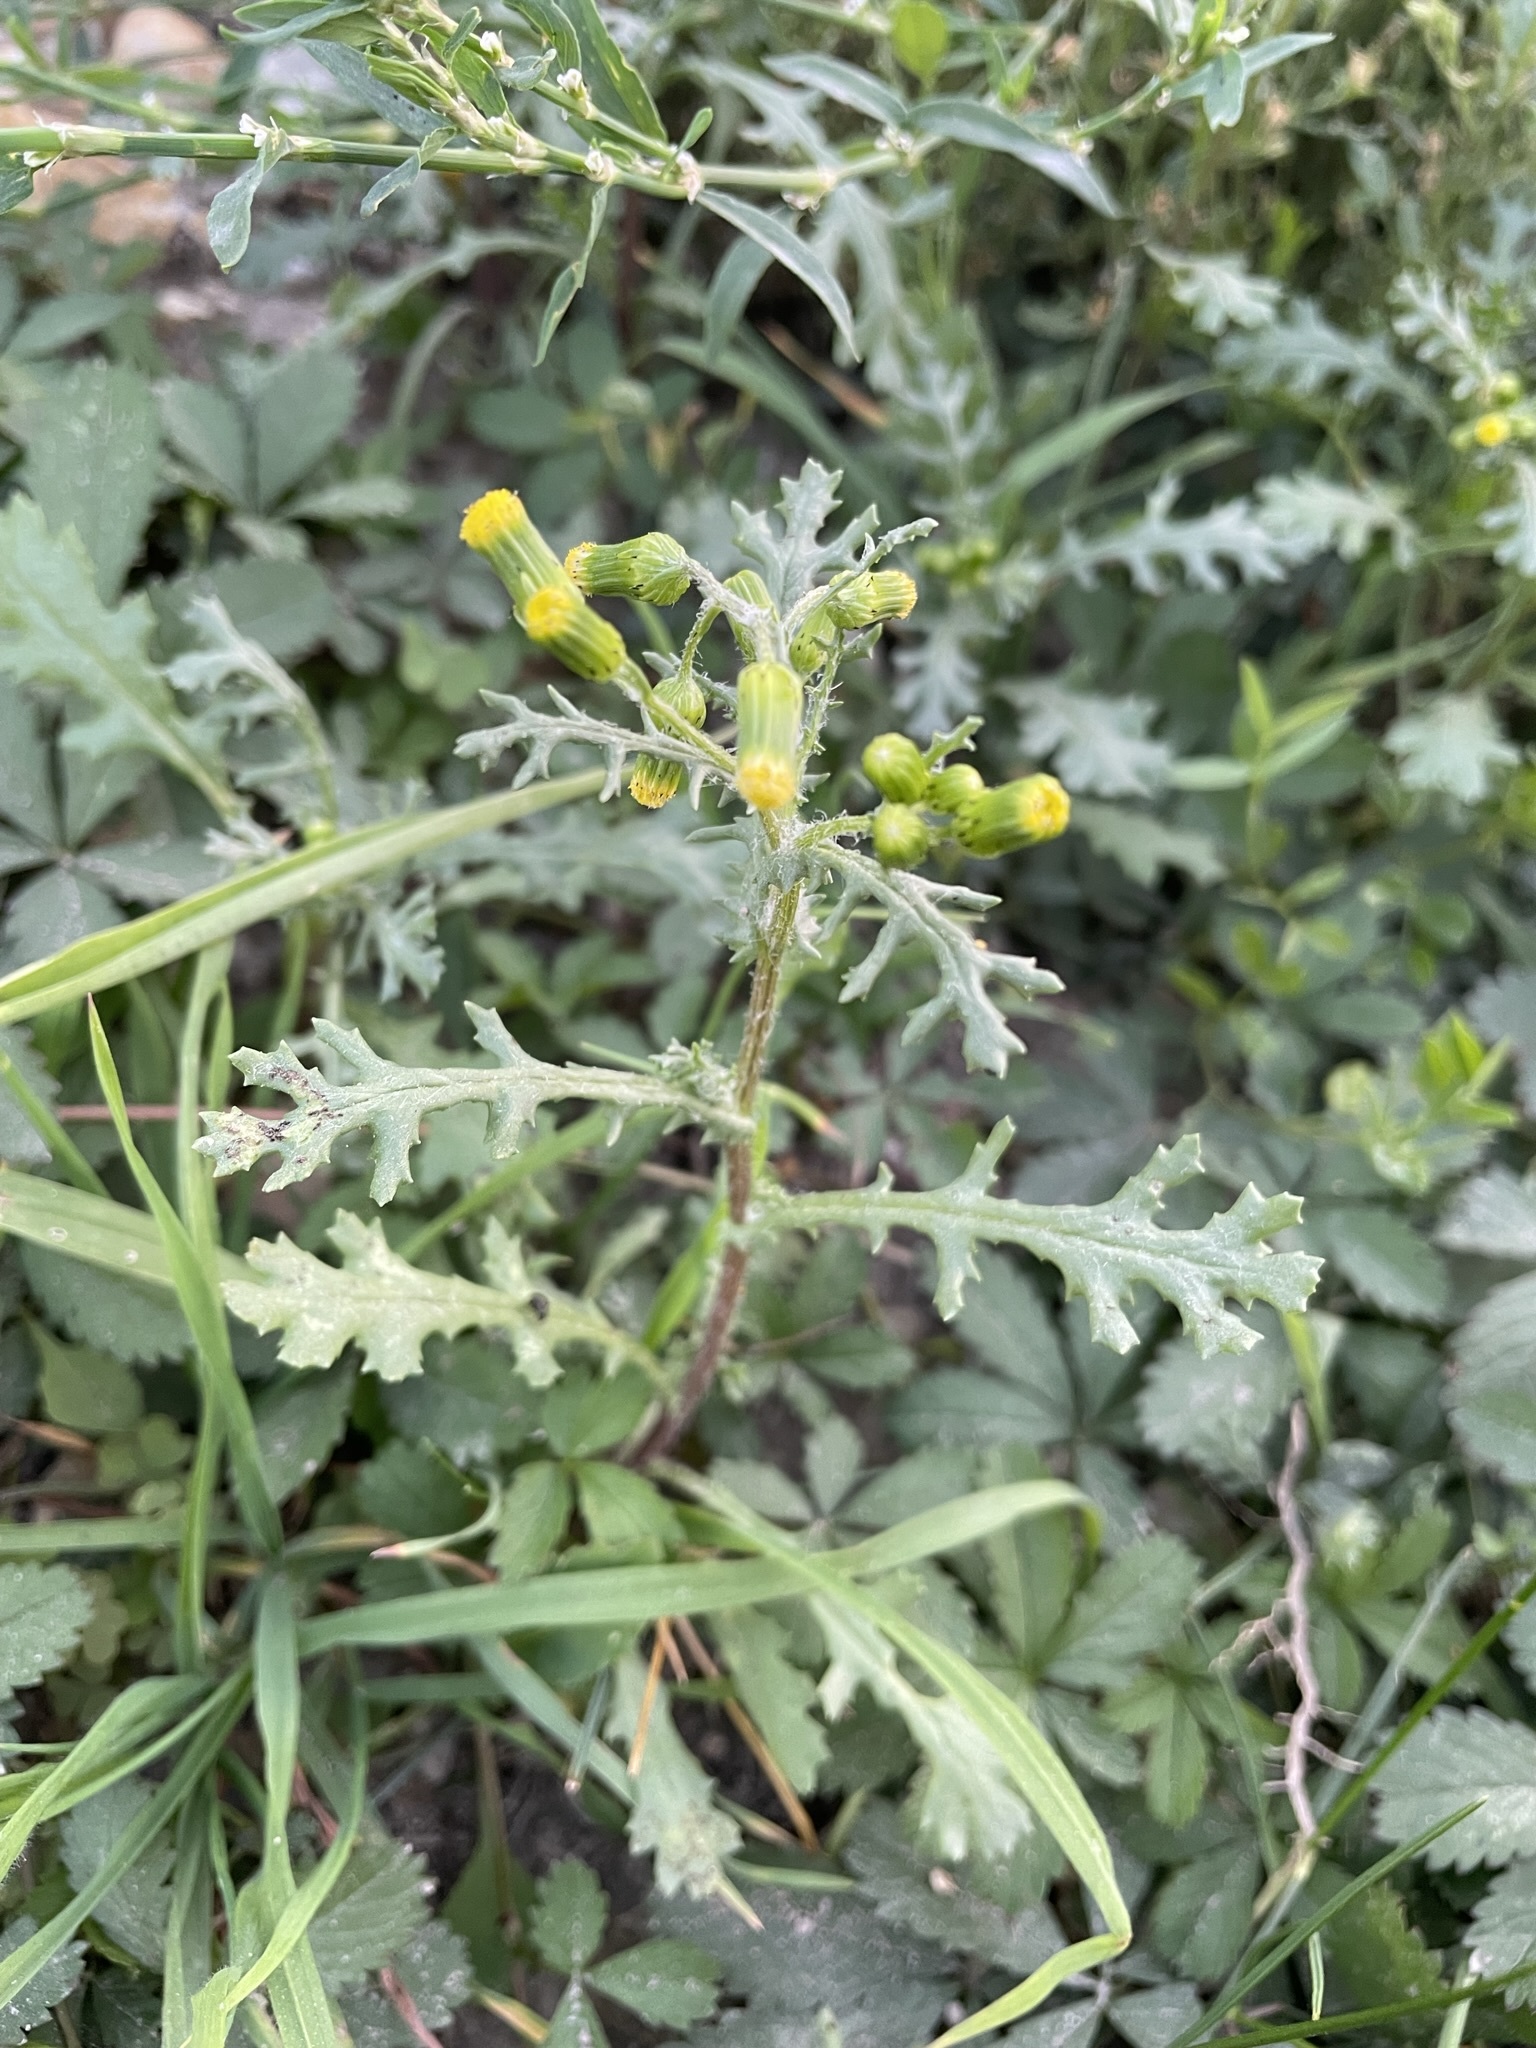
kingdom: Plantae
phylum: Tracheophyta
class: Magnoliopsida
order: Asterales
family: Asteraceae
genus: Senecio
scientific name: Senecio vulgaris
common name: Old-man-in-the-spring
